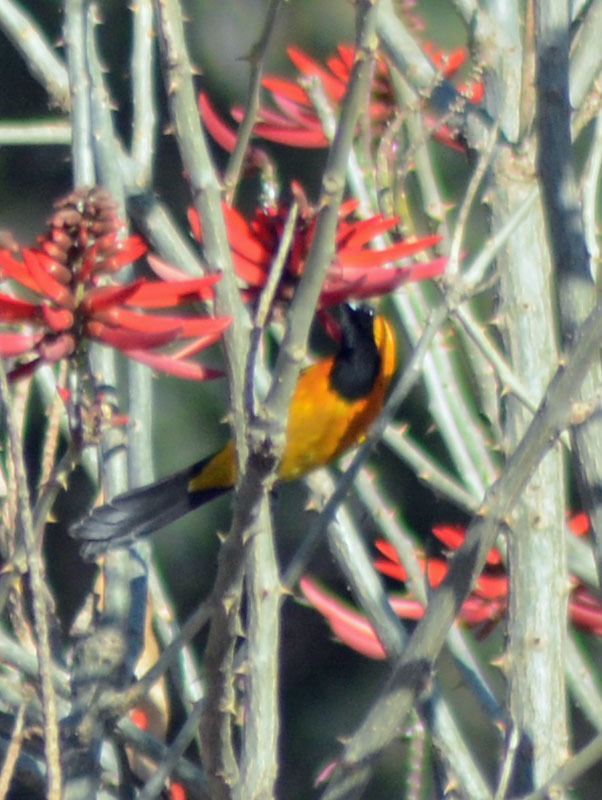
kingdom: Animalia
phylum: Chordata
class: Aves
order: Passeriformes
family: Icteridae
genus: Icterus
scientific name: Icterus cucullatus
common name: Hooded oriole
